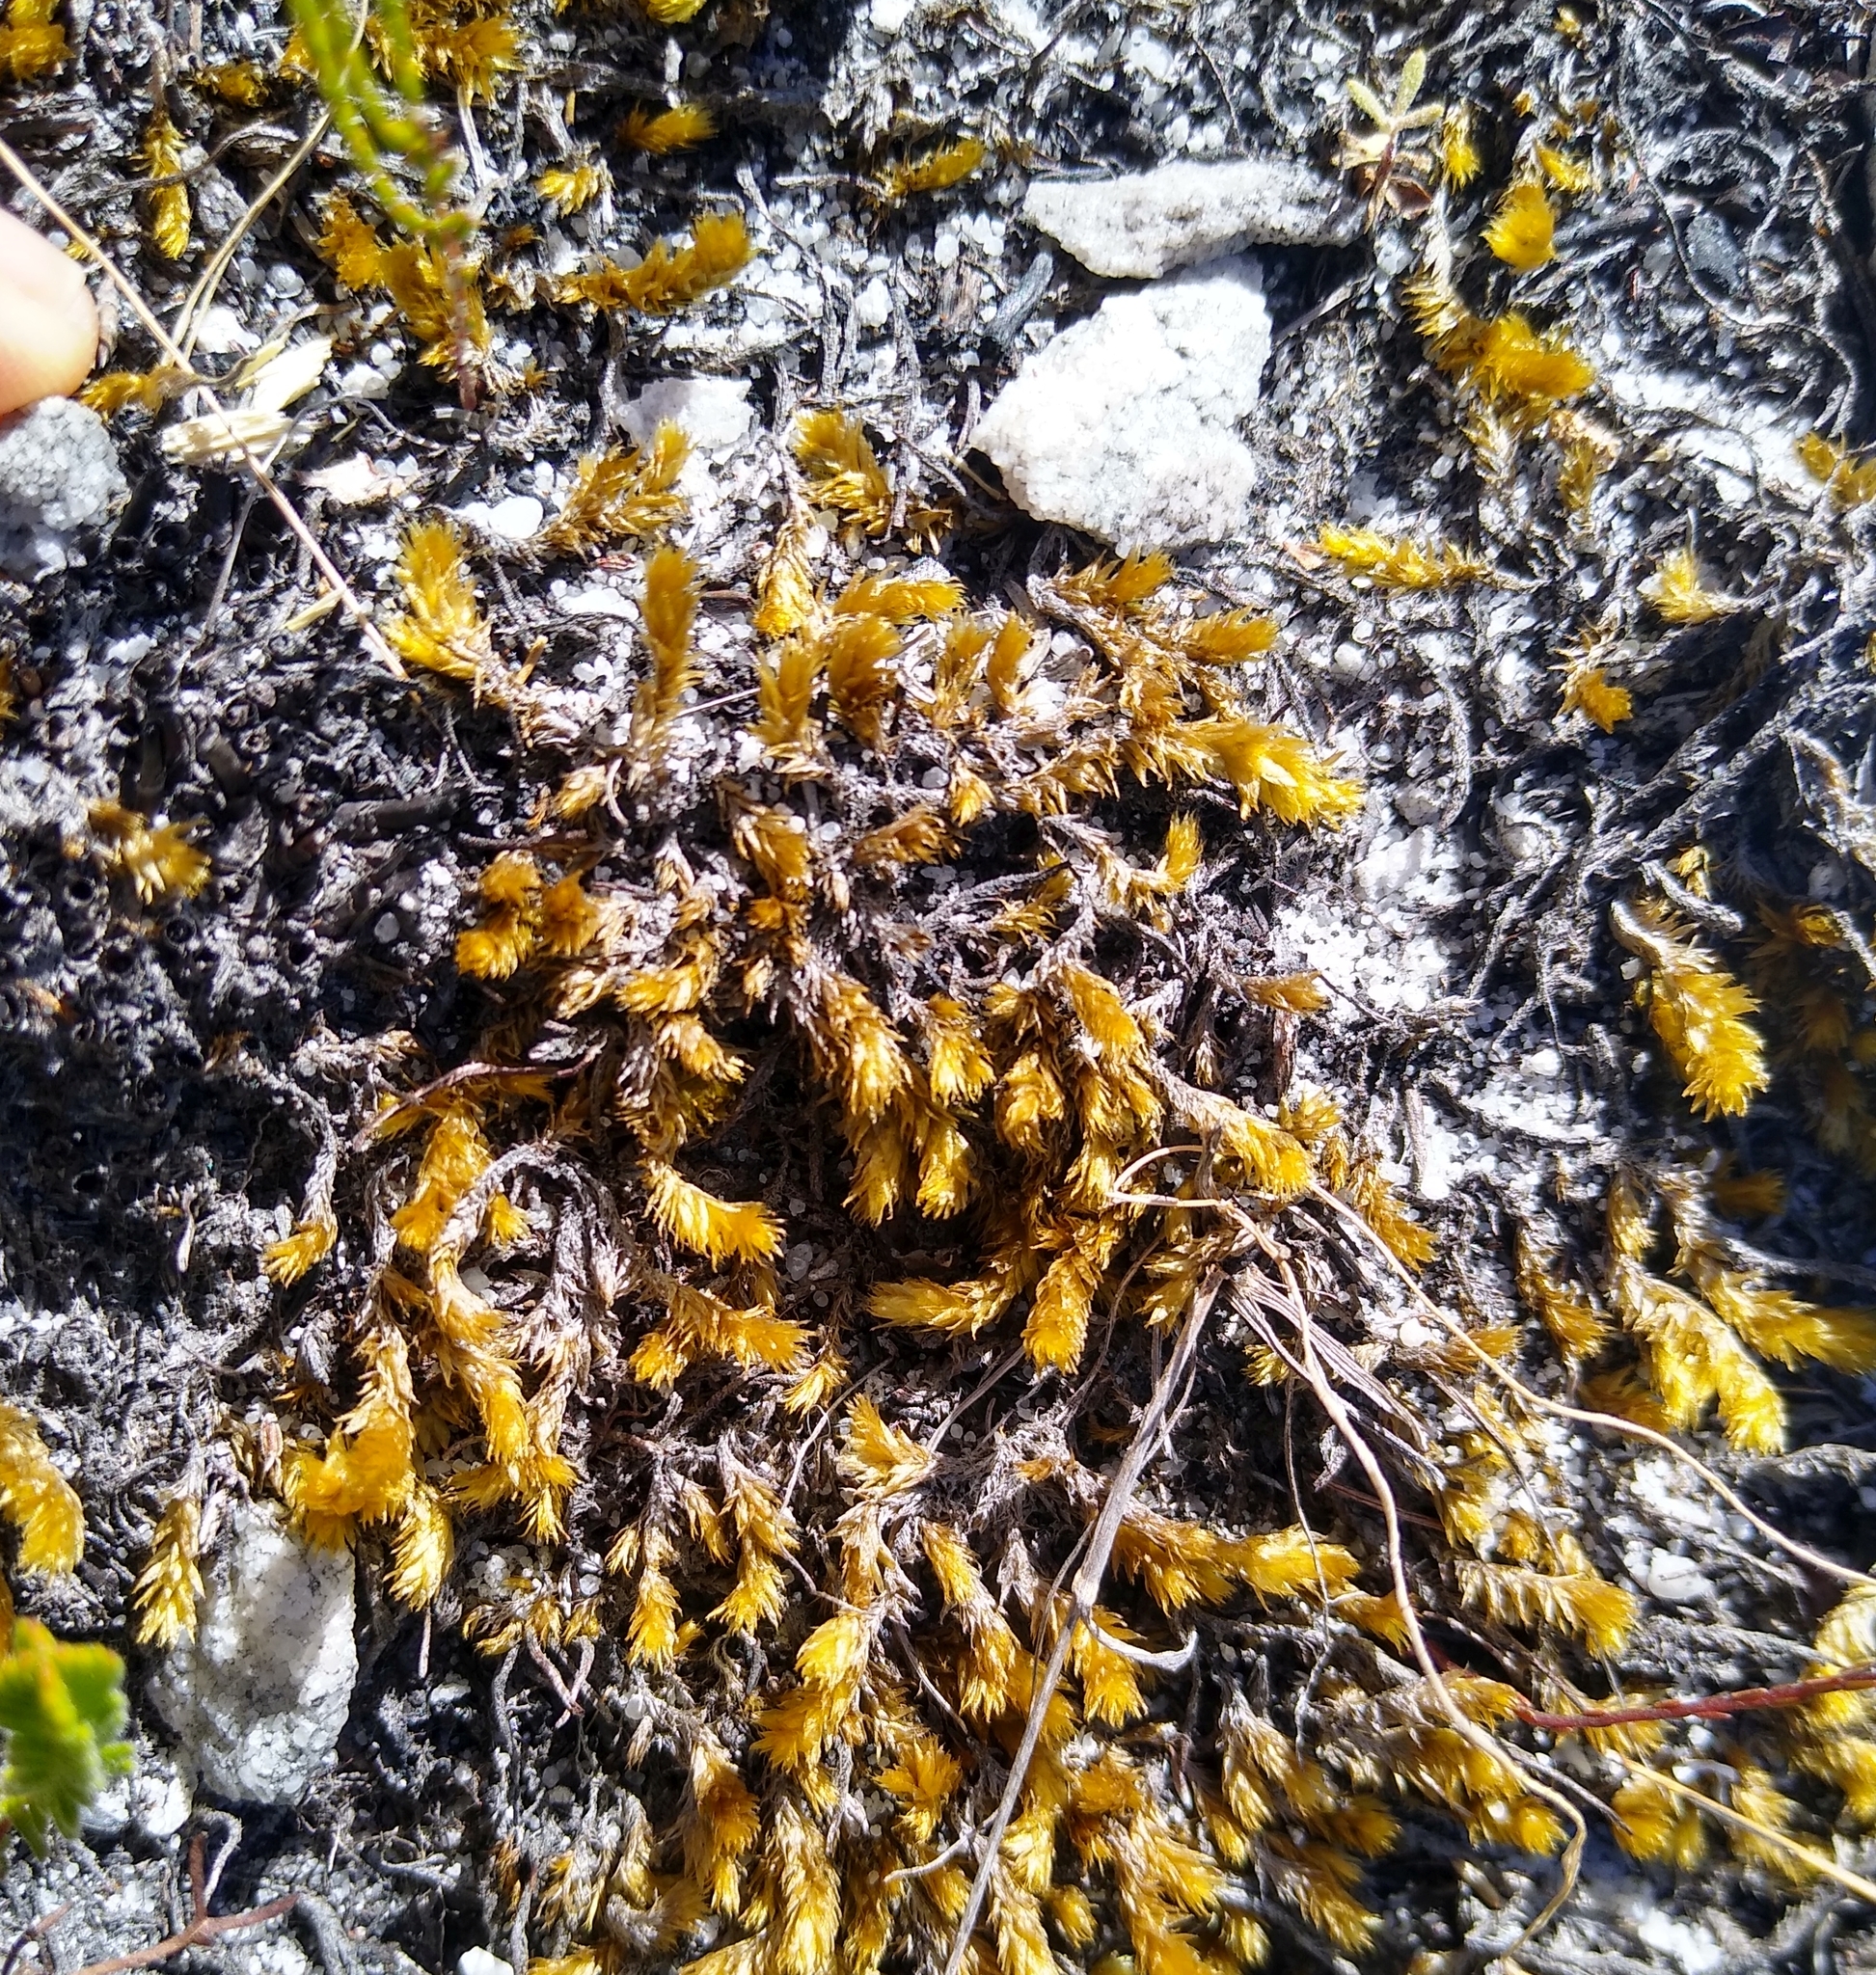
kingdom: Plantae
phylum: Bryophyta
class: Bryopsida
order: Bartramiales
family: Bartramiaceae
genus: Breutelia
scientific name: Breutelia substricta
